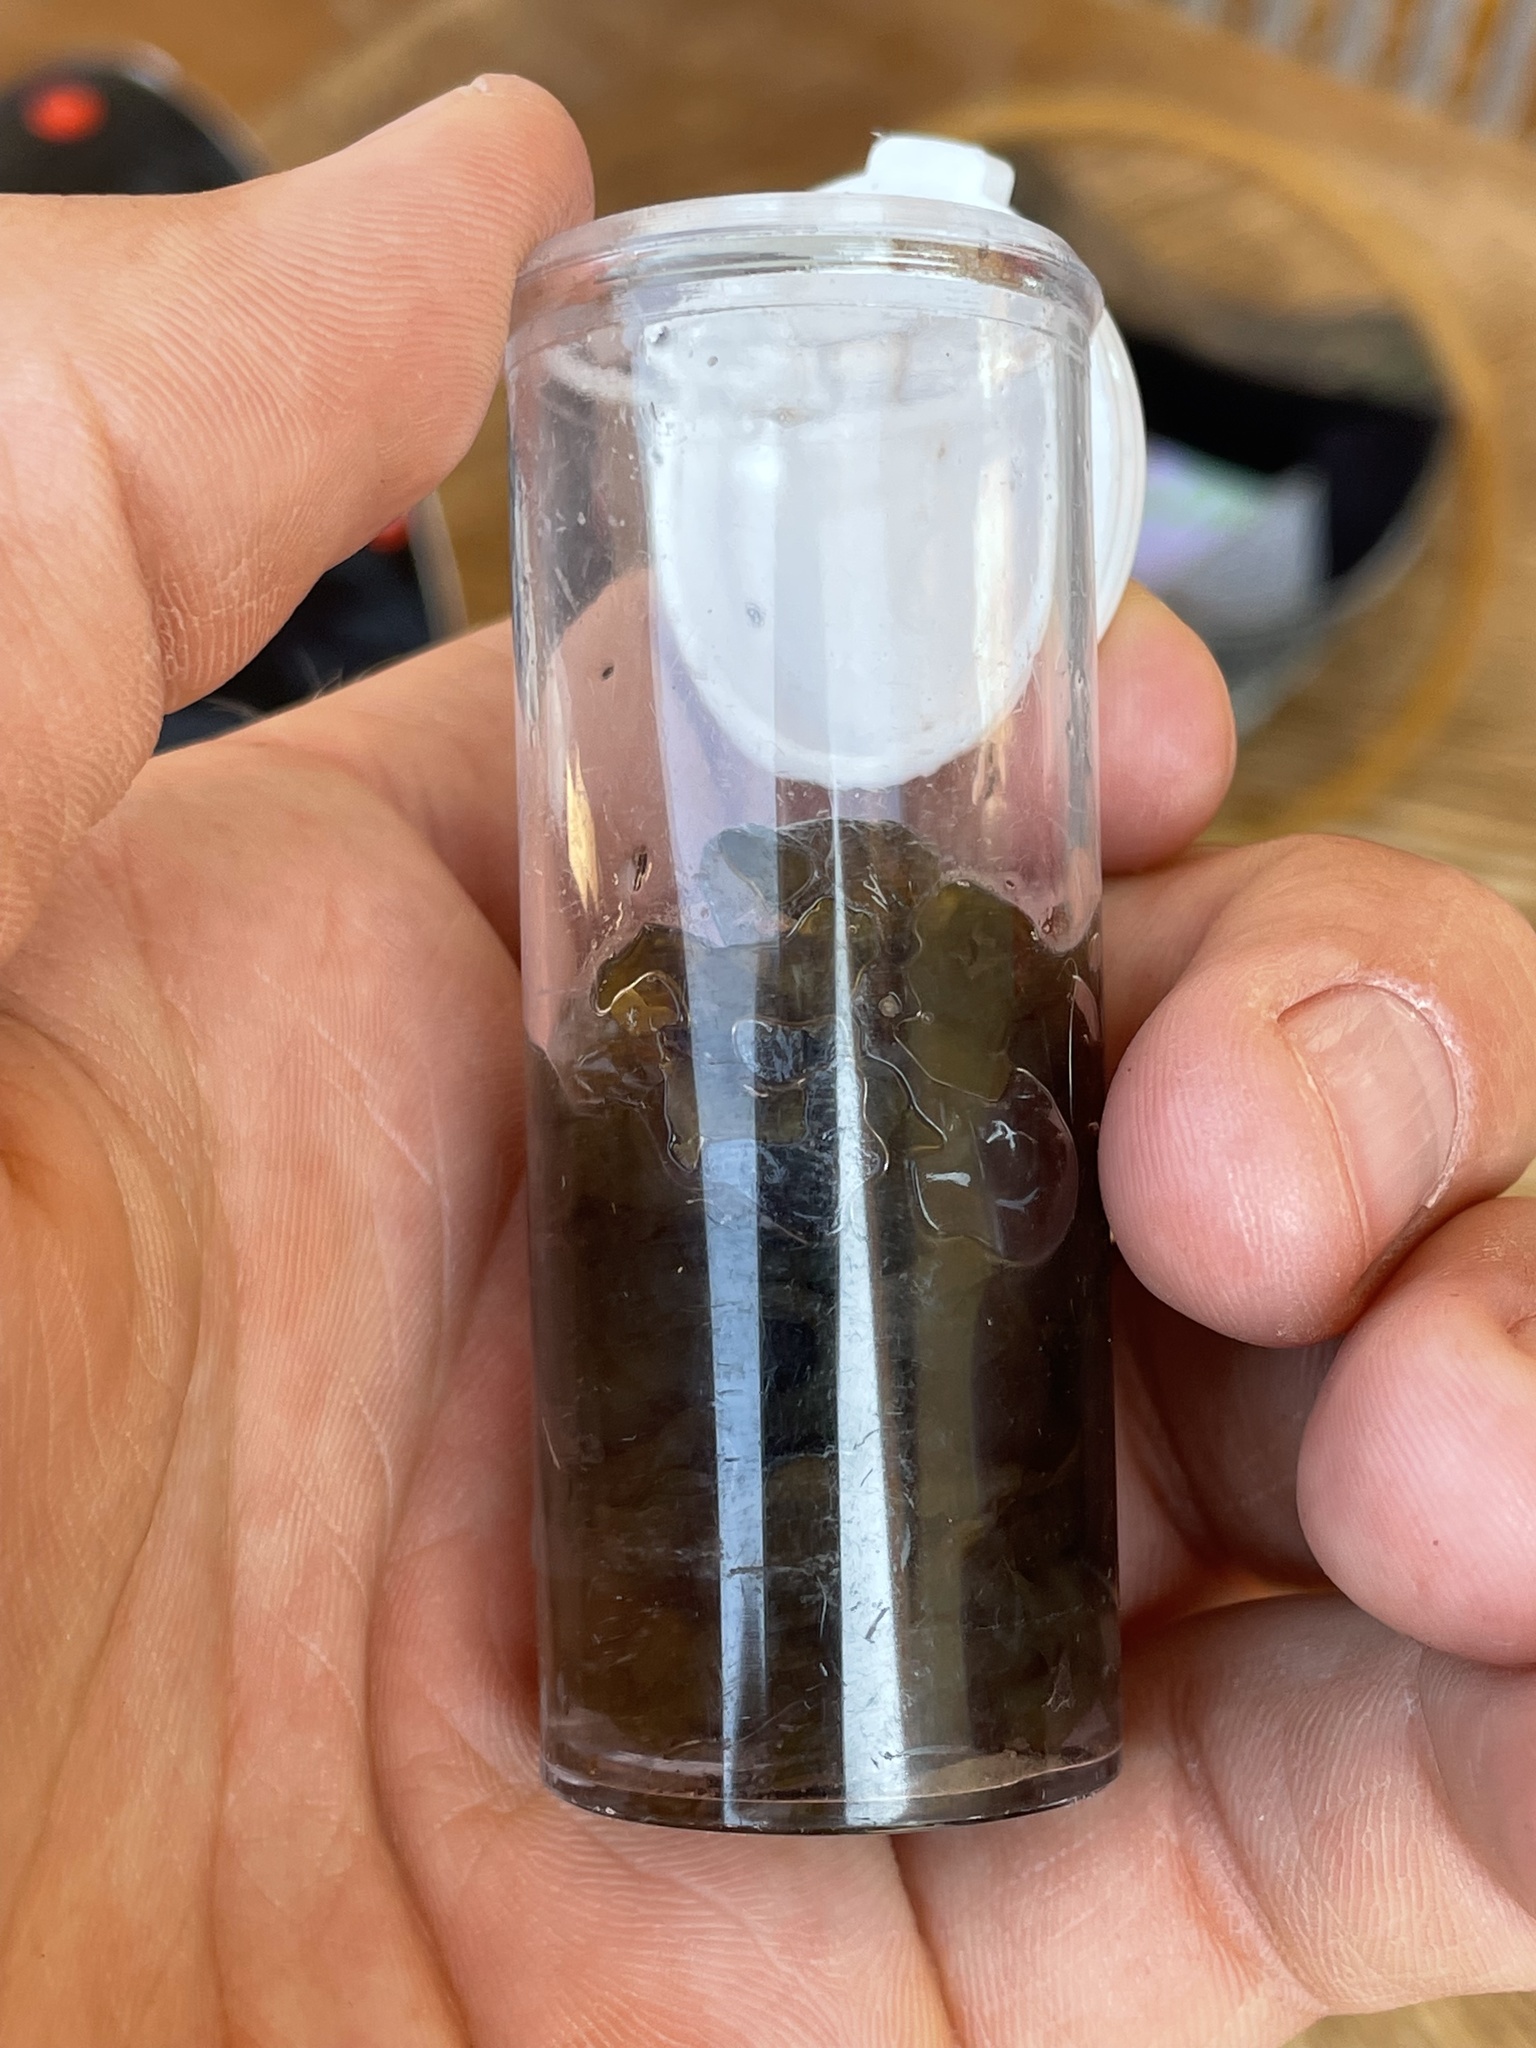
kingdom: Bacteria
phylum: Cyanobacteria
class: Cyanobacteriia
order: Cyanobacteriales
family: Nostocaceae
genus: Nostoc
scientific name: Nostoc commune
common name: Star jelly
